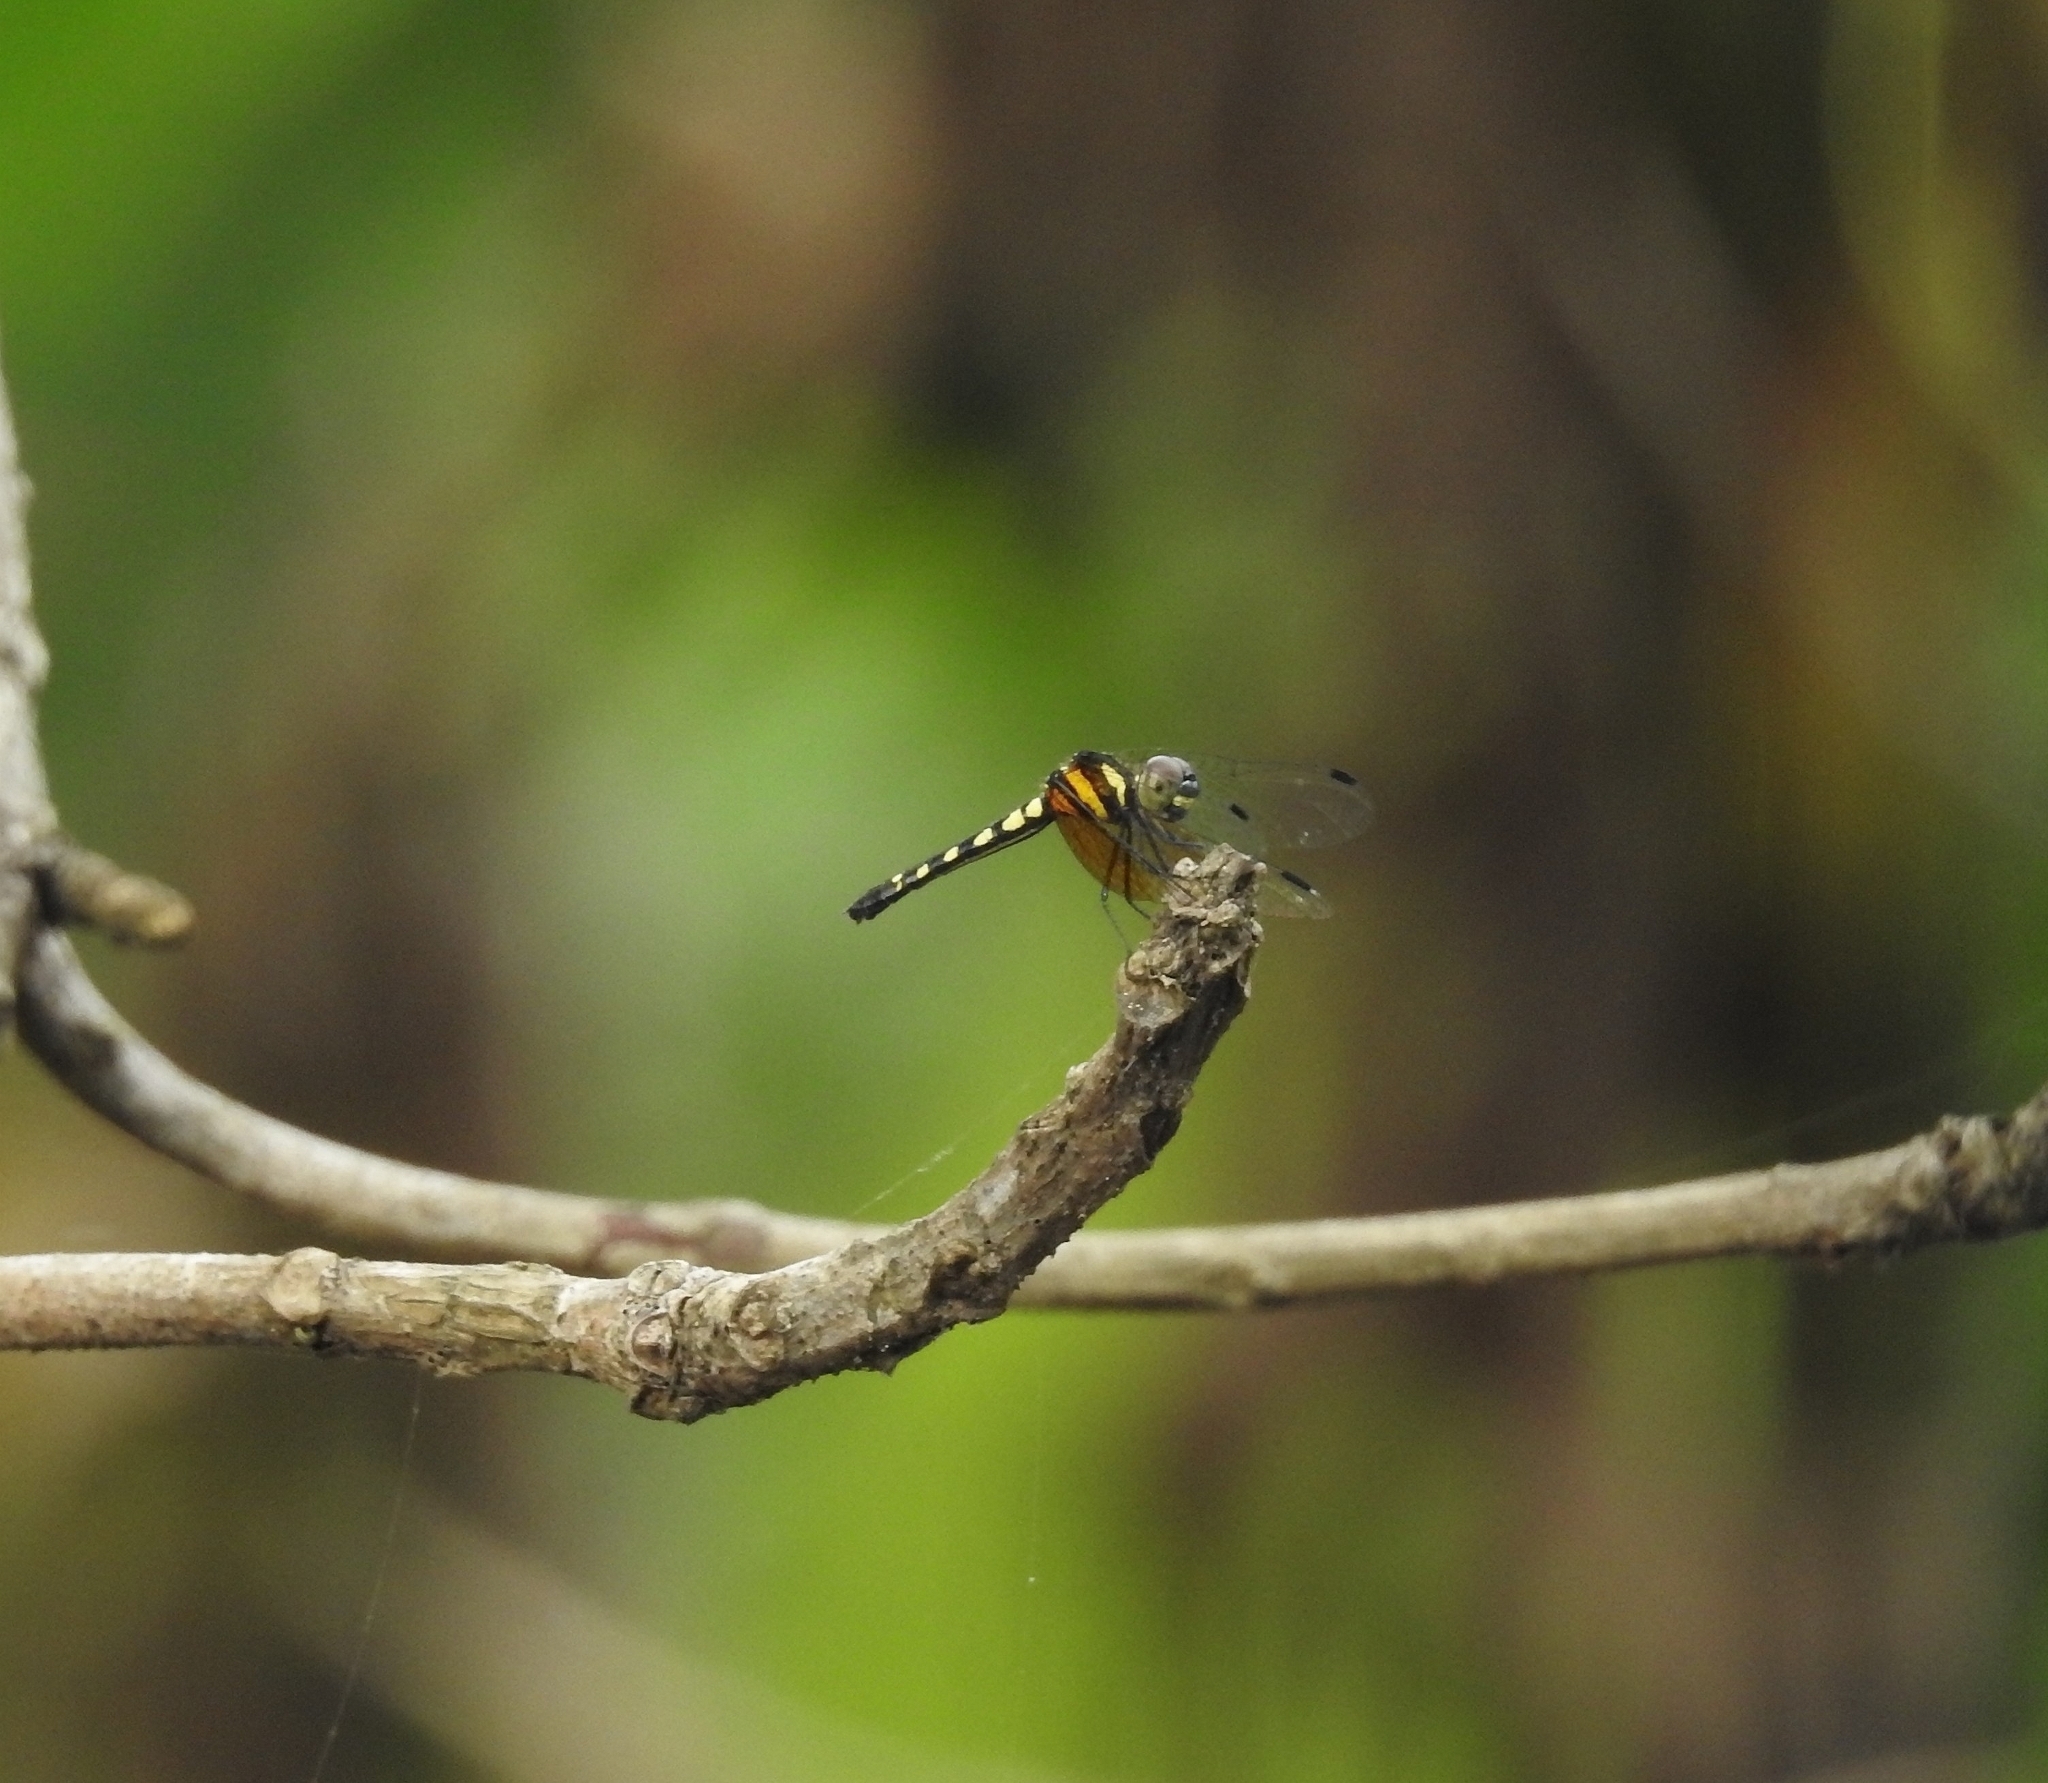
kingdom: Animalia
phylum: Arthropoda
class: Insecta
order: Odonata
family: Libellulidae
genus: Tetrathemis
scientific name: Tetrathemis platyptera
